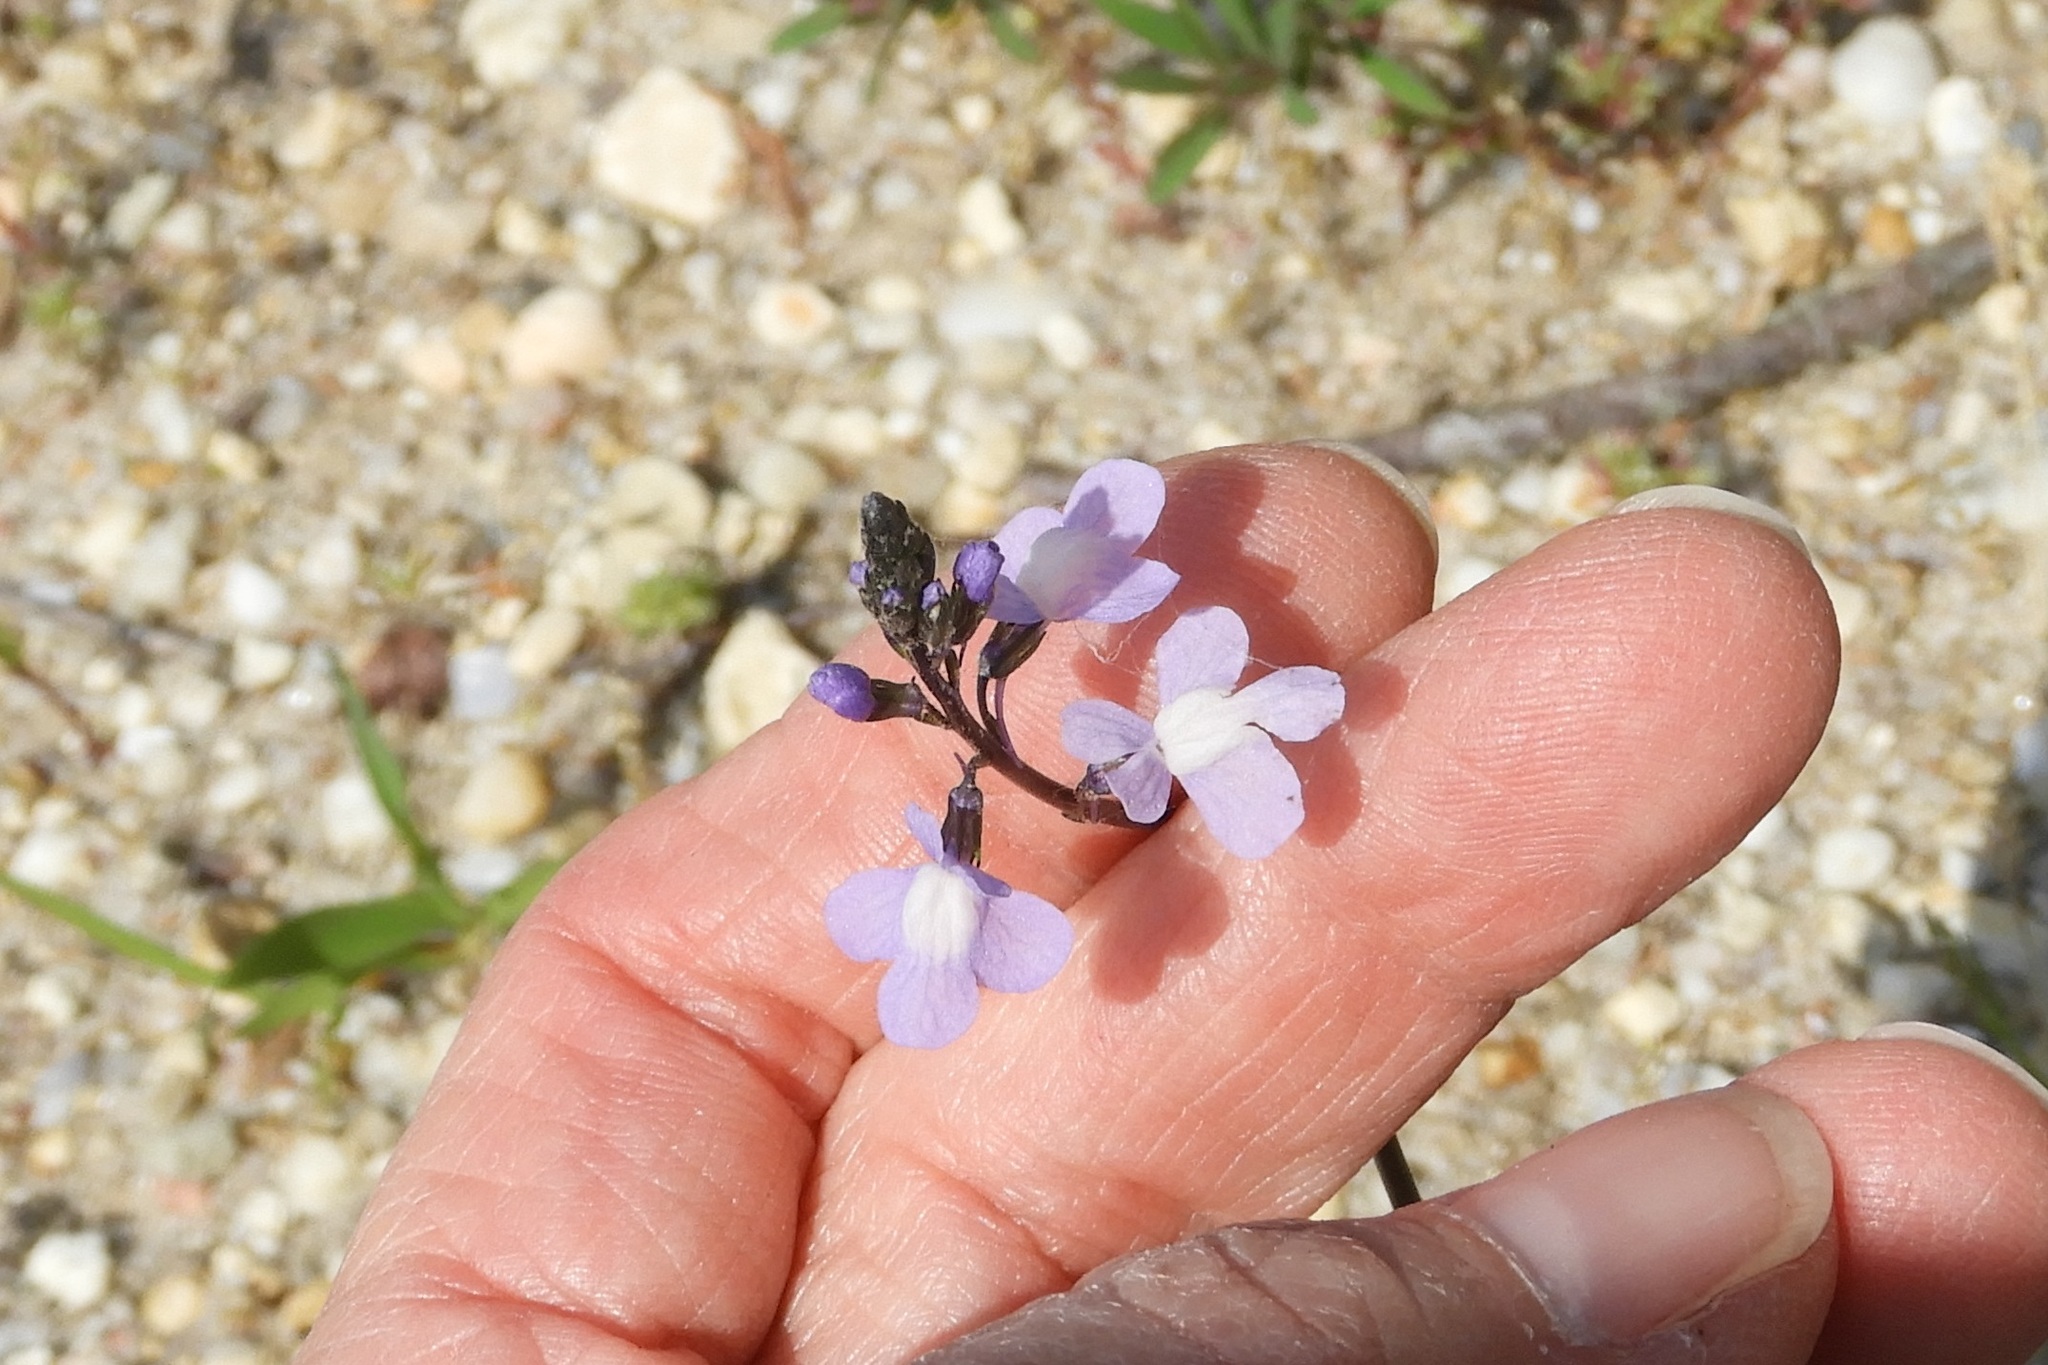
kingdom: Plantae
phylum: Tracheophyta
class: Magnoliopsida
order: Lamiales
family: Plantaginaceae
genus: Nuttallanthus
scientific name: Nuttallanthus canadensis
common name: Blue toadflax
